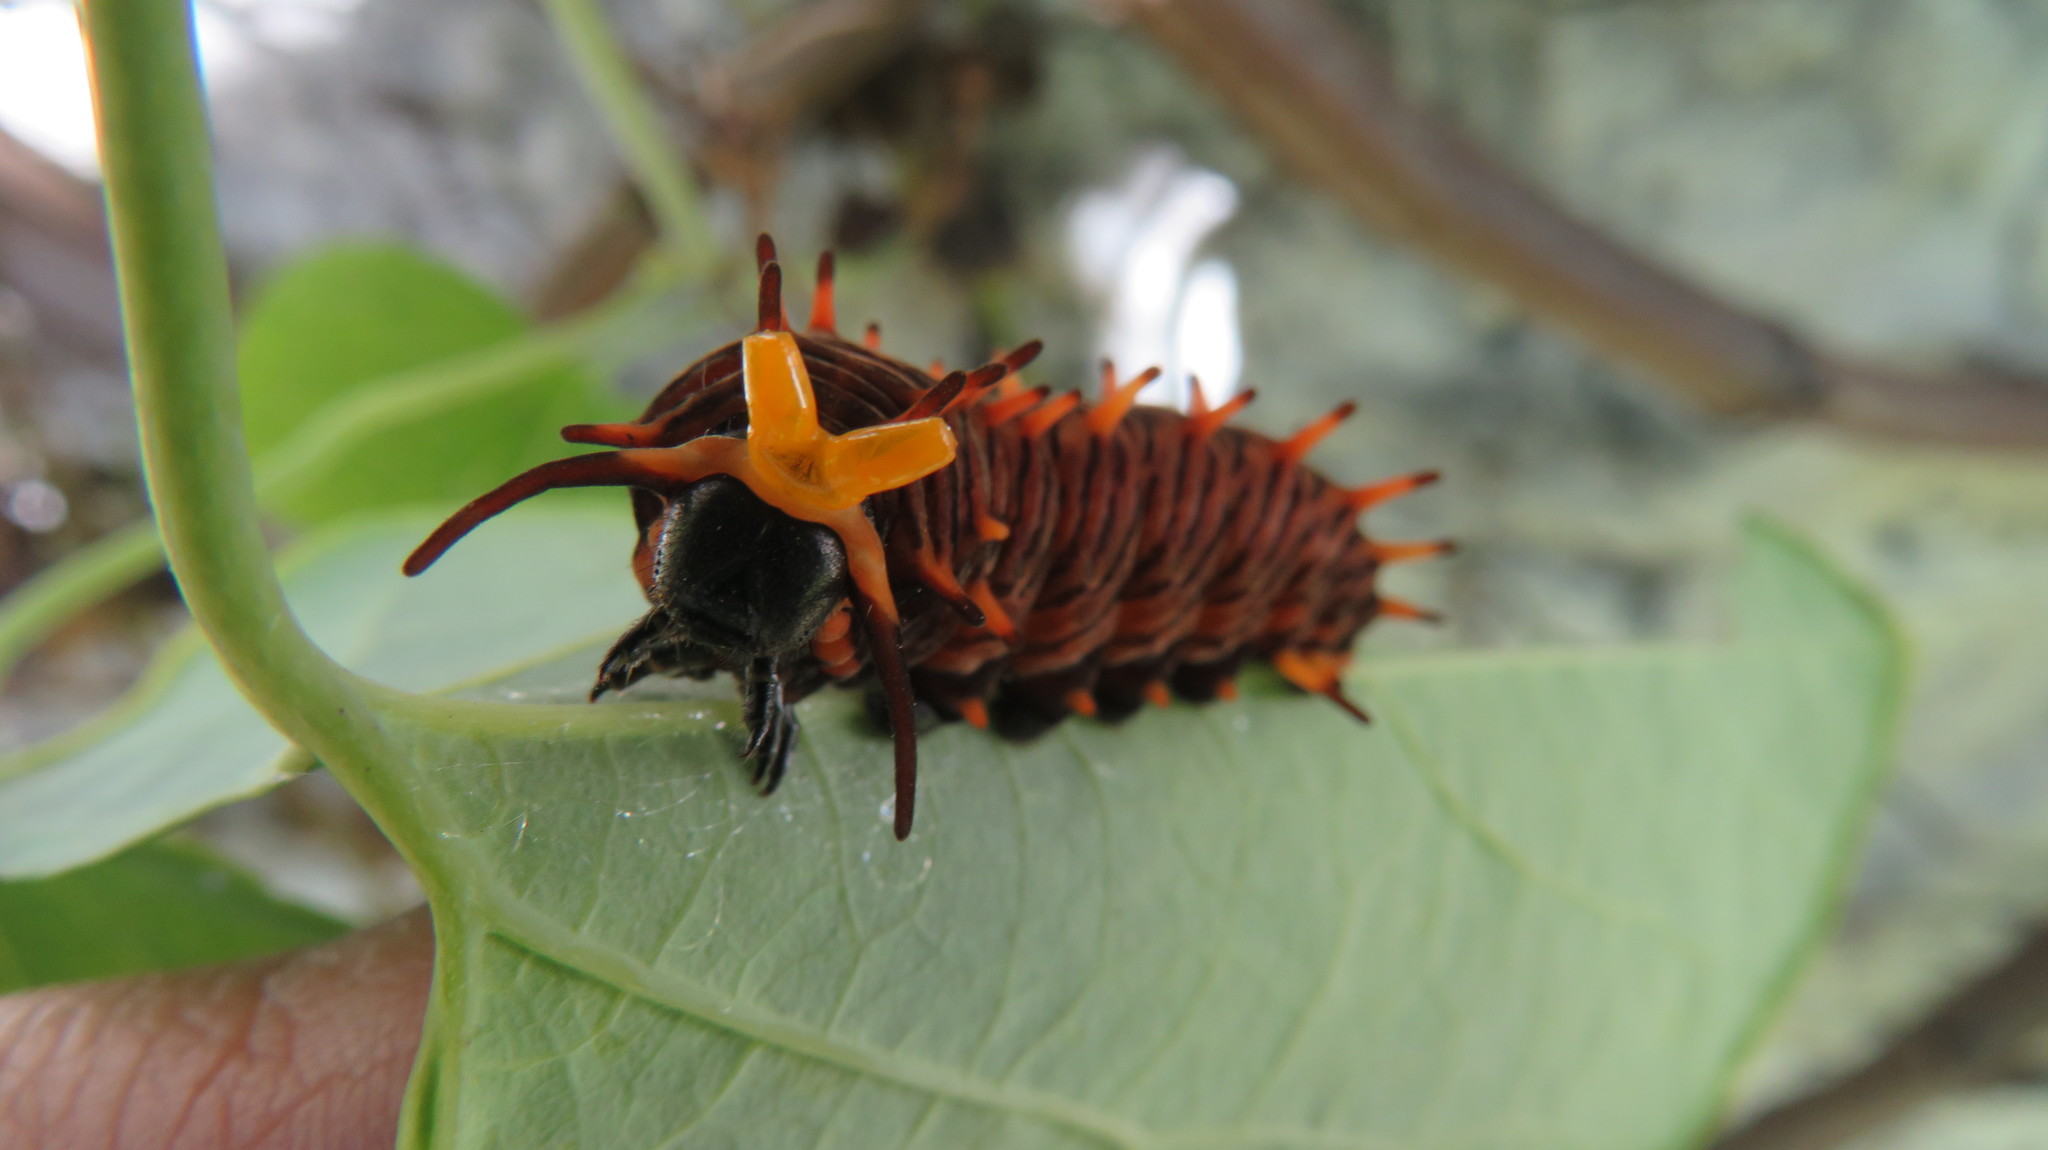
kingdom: Animalia
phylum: Arthropoda
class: Insecta
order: Lepidoptera
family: Papilionidae
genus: Battus
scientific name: Battus polydamas
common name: Polydamas swallowtail
